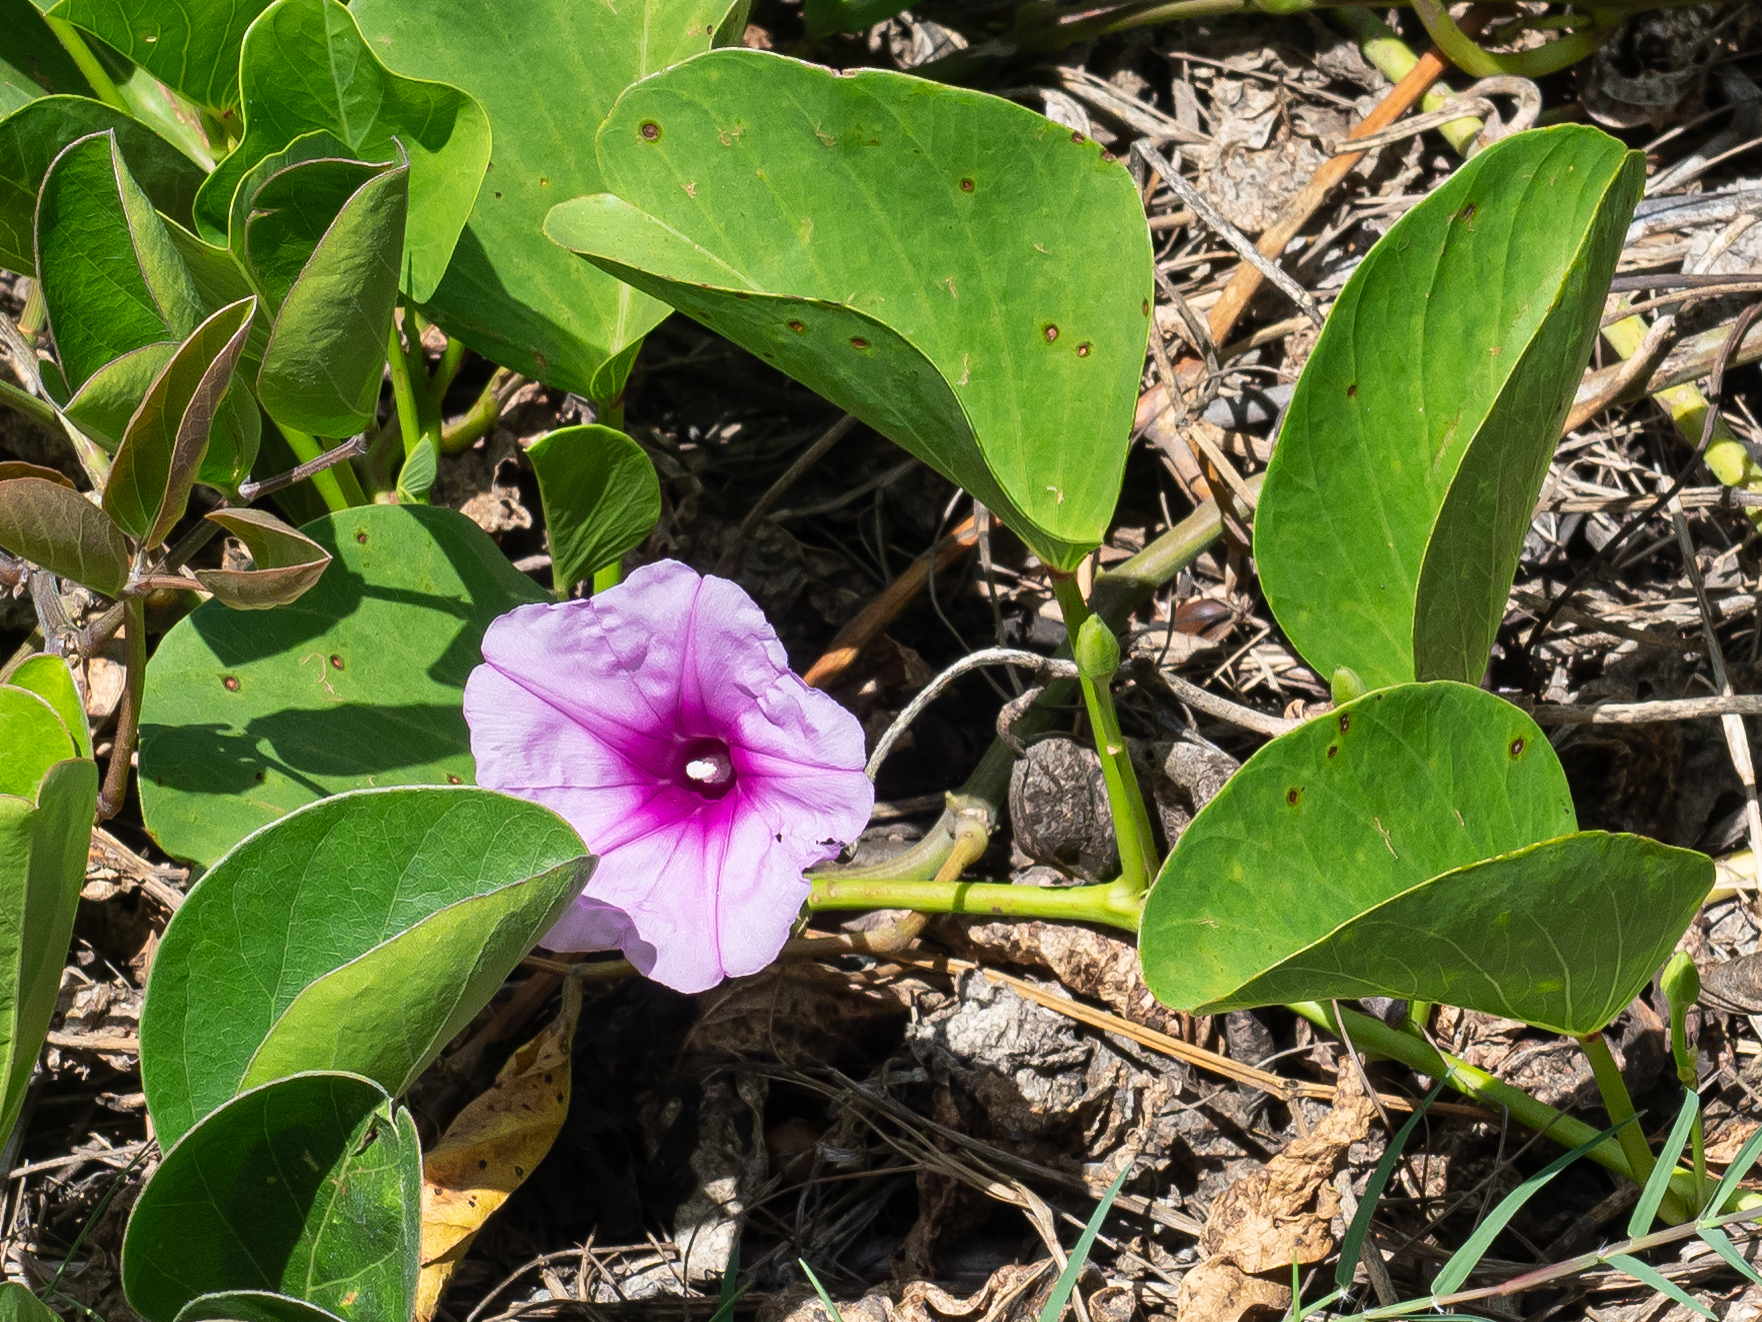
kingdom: Plantae
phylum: Tracheophyta
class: Magnoliopsida
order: Solanales
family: Convolvulaceae
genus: Ipomoea
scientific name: Ipomoea pes-caprae
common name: Beach morning glory
